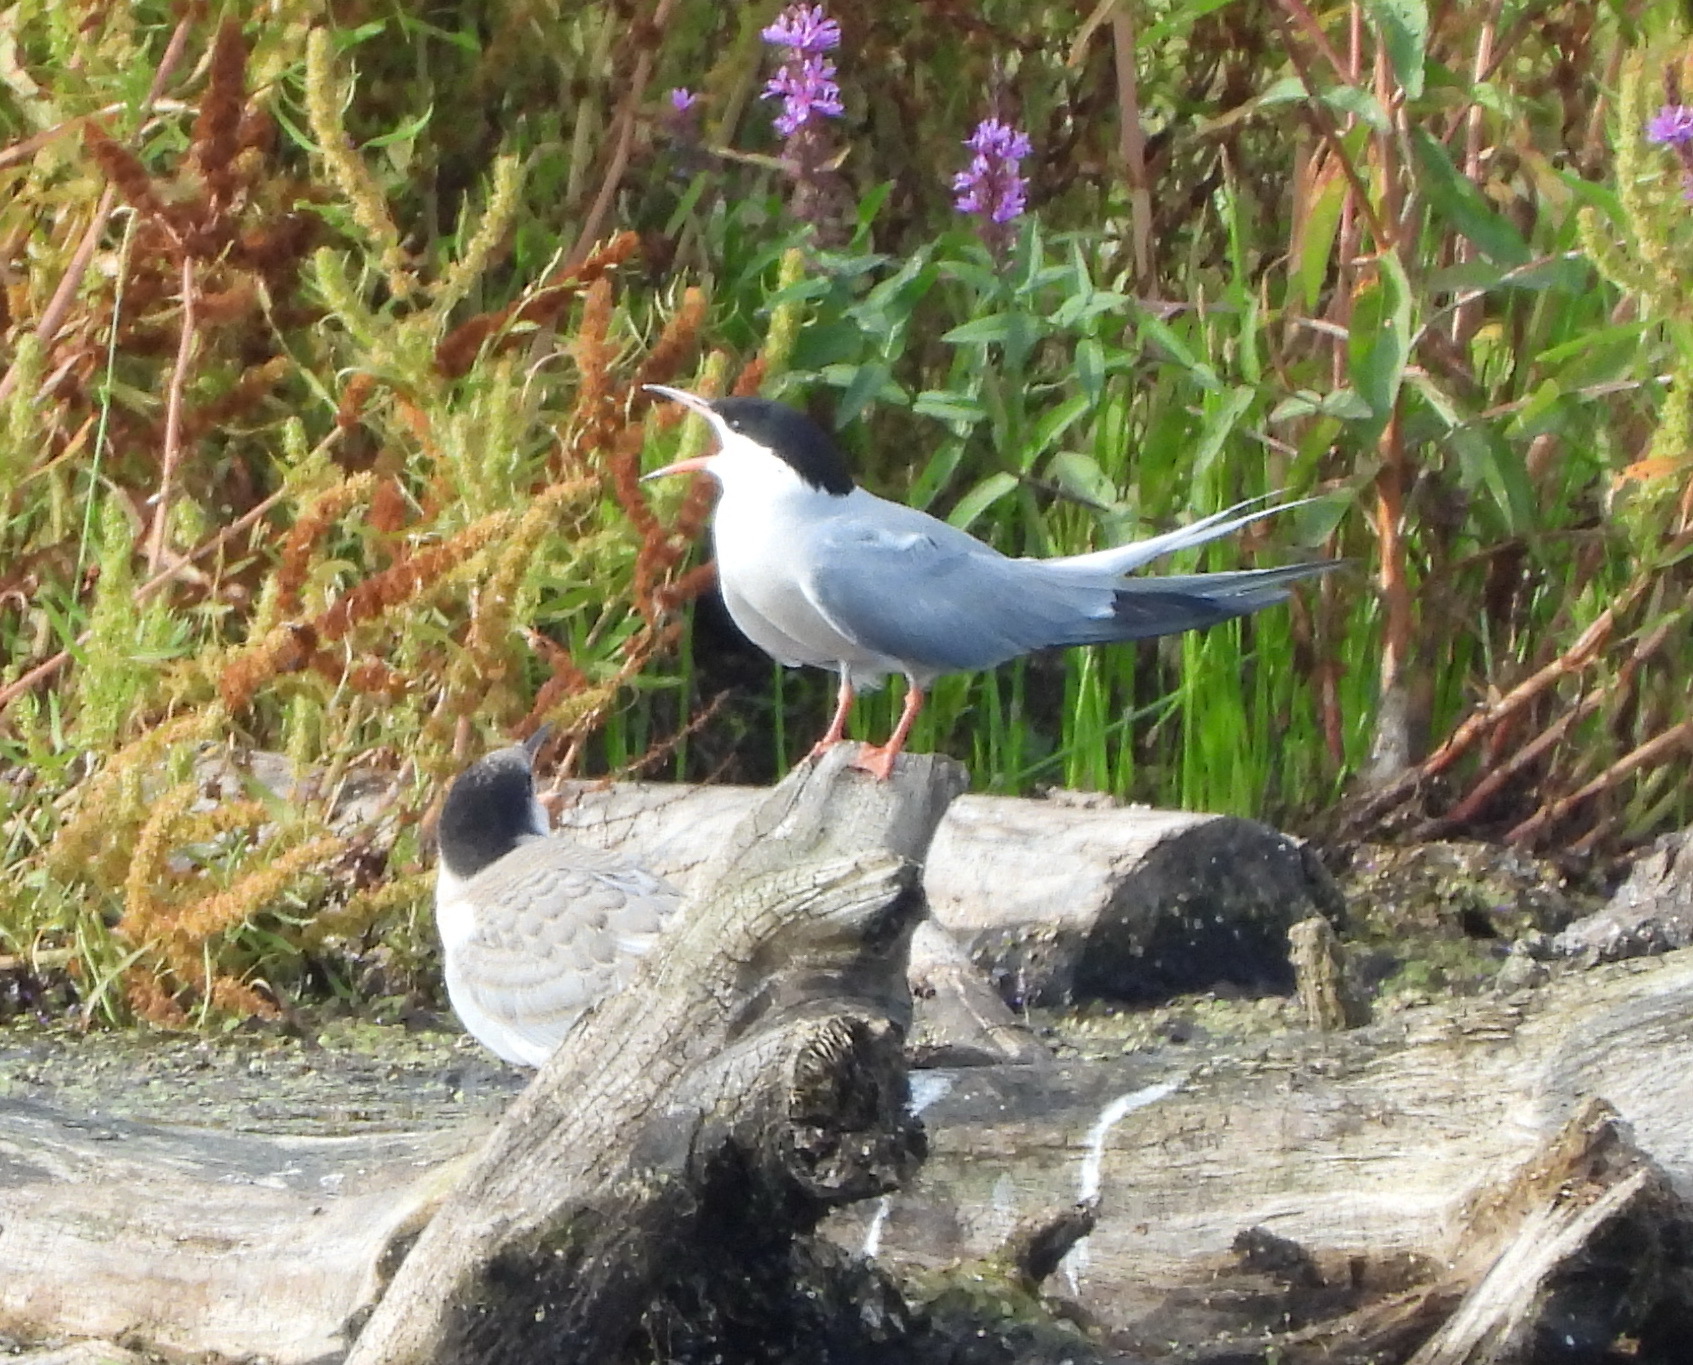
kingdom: Animalia
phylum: Chordata
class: Aves
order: Charadriiformes
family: Laridae
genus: Sterna
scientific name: Sterna hirundo
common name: Common tern
